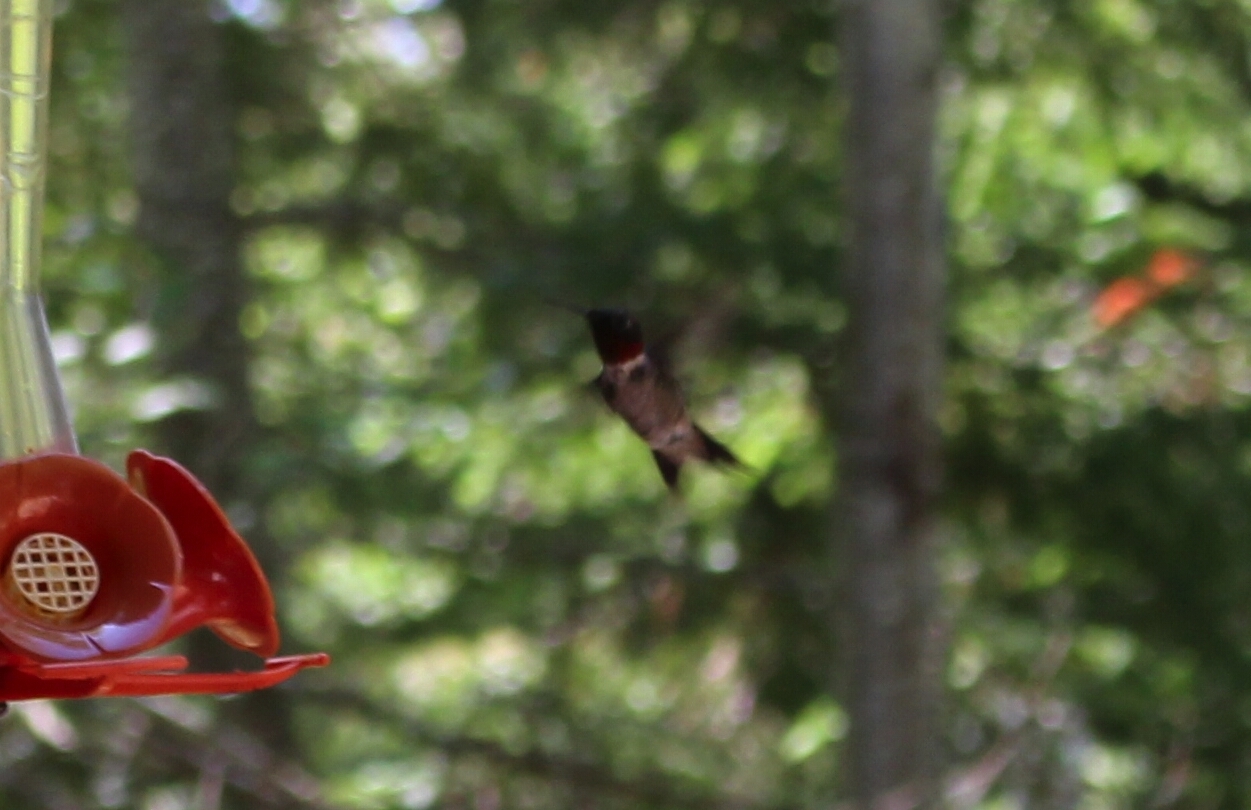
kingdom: Animalia
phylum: Chordata
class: Aves
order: Apodiformes
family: Trochilidae
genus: Archilochus
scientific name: Archilochus colubris
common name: Ruby-throated hummingbird
